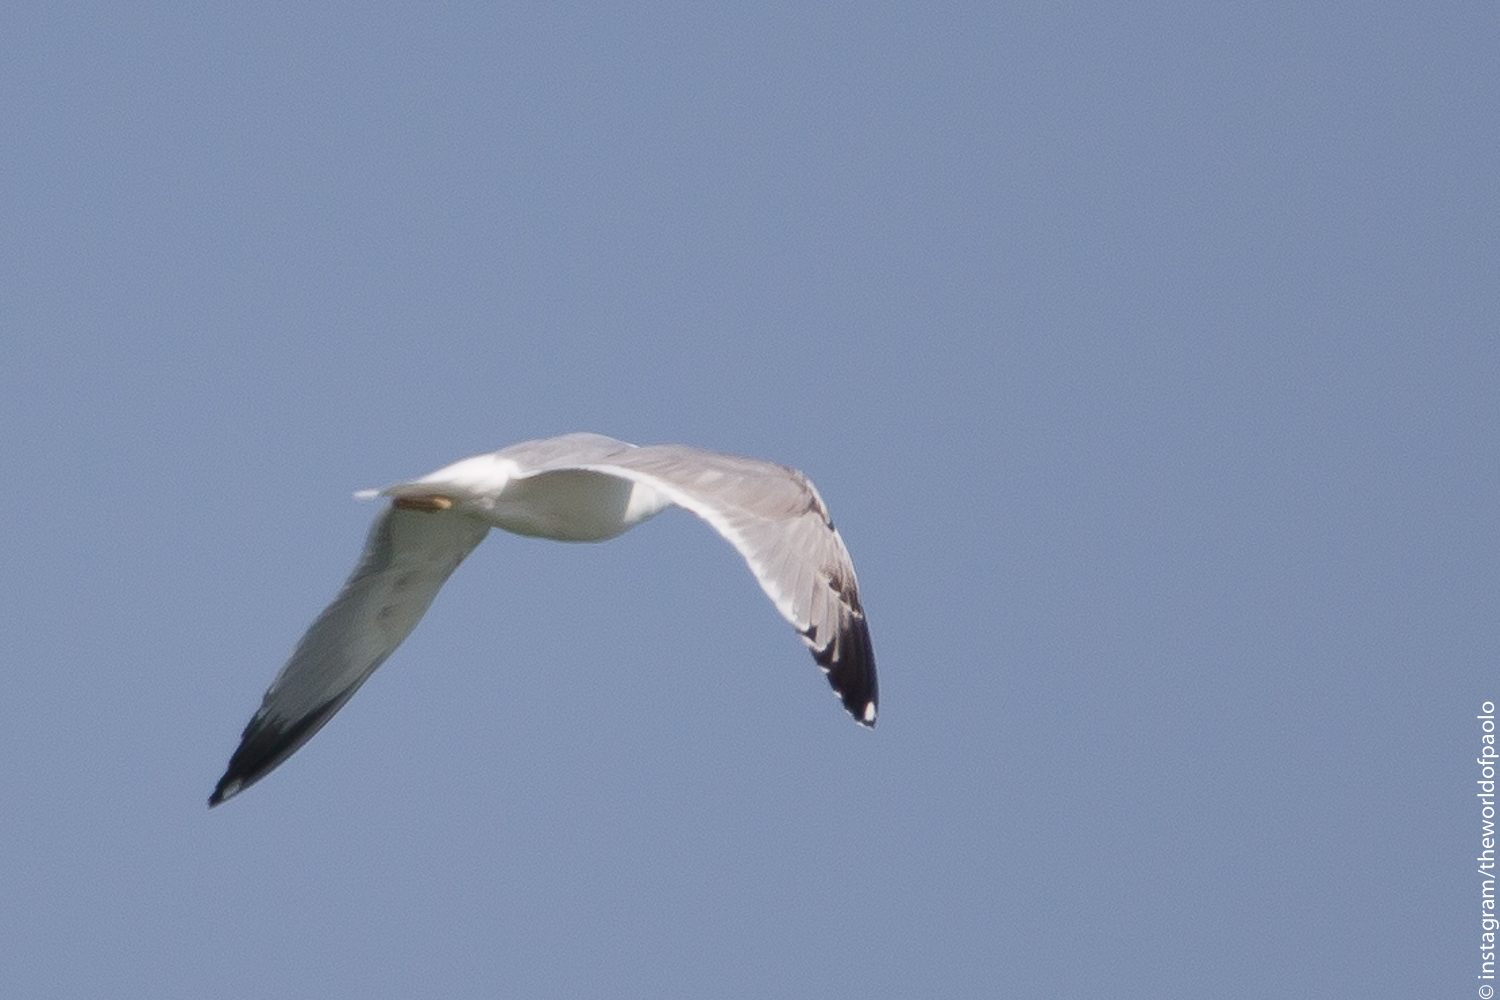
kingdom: Animalia
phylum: Chordata
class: Aves
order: Charadriiformes
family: Laridae
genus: Larus
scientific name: Larus michahellis
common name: Yellow-legged gull
